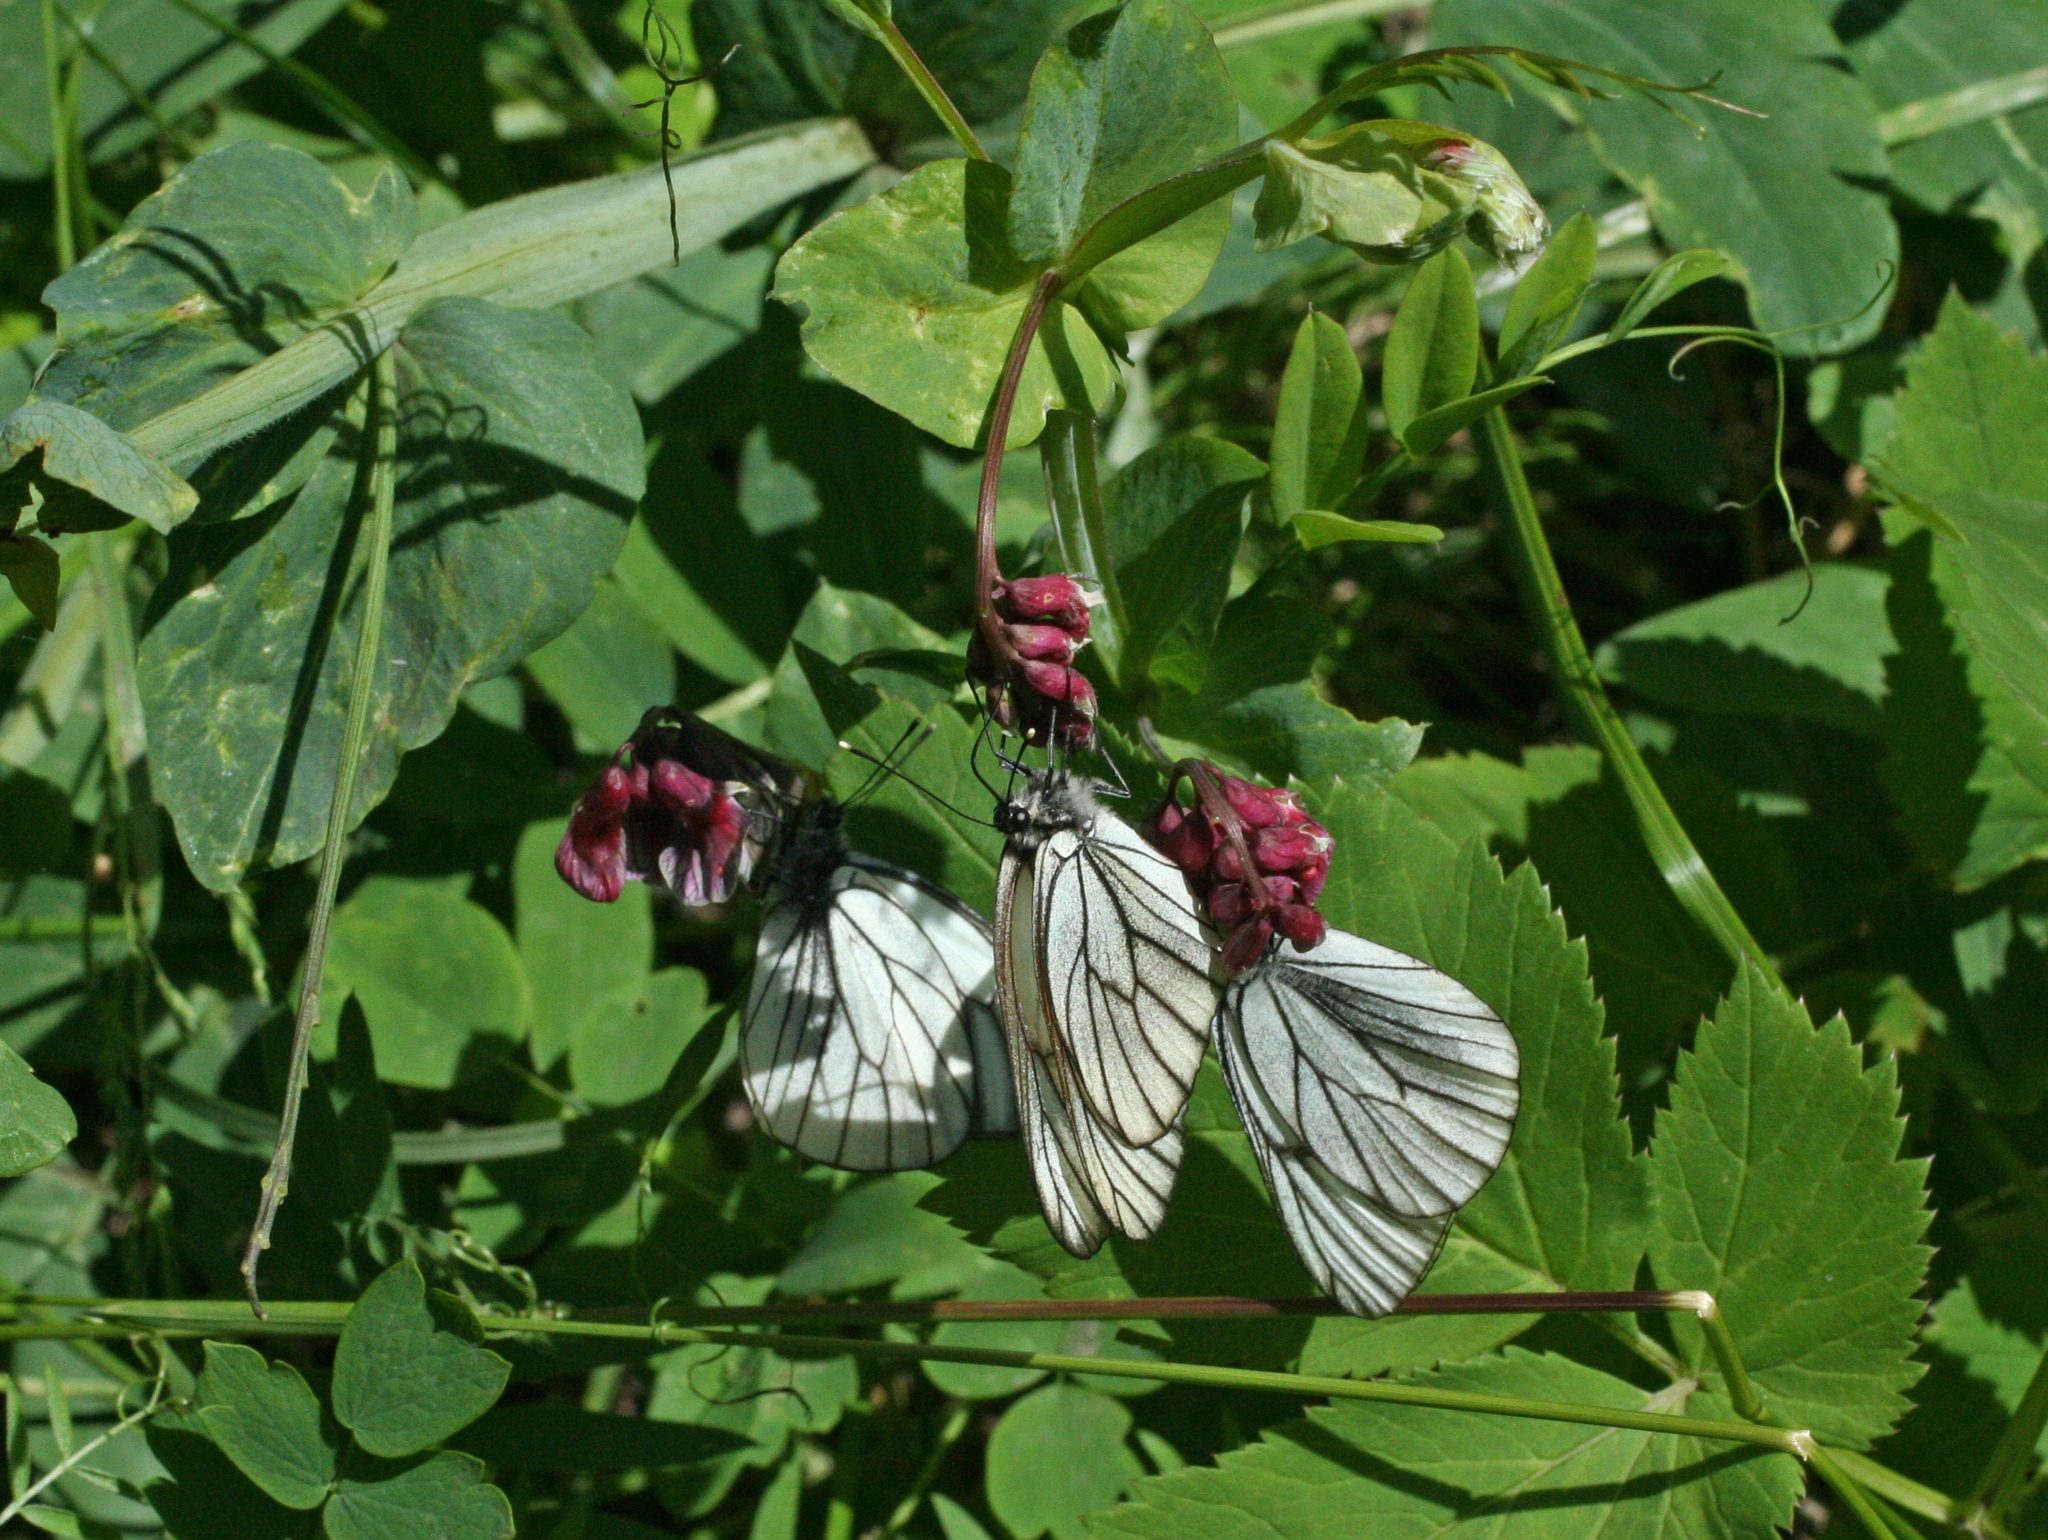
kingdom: Plantae
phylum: Tracheophyta
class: Magnoliopsida
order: Fabales
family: Fabaceae
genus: Lathyrus
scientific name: Lathyrus pisiformis
